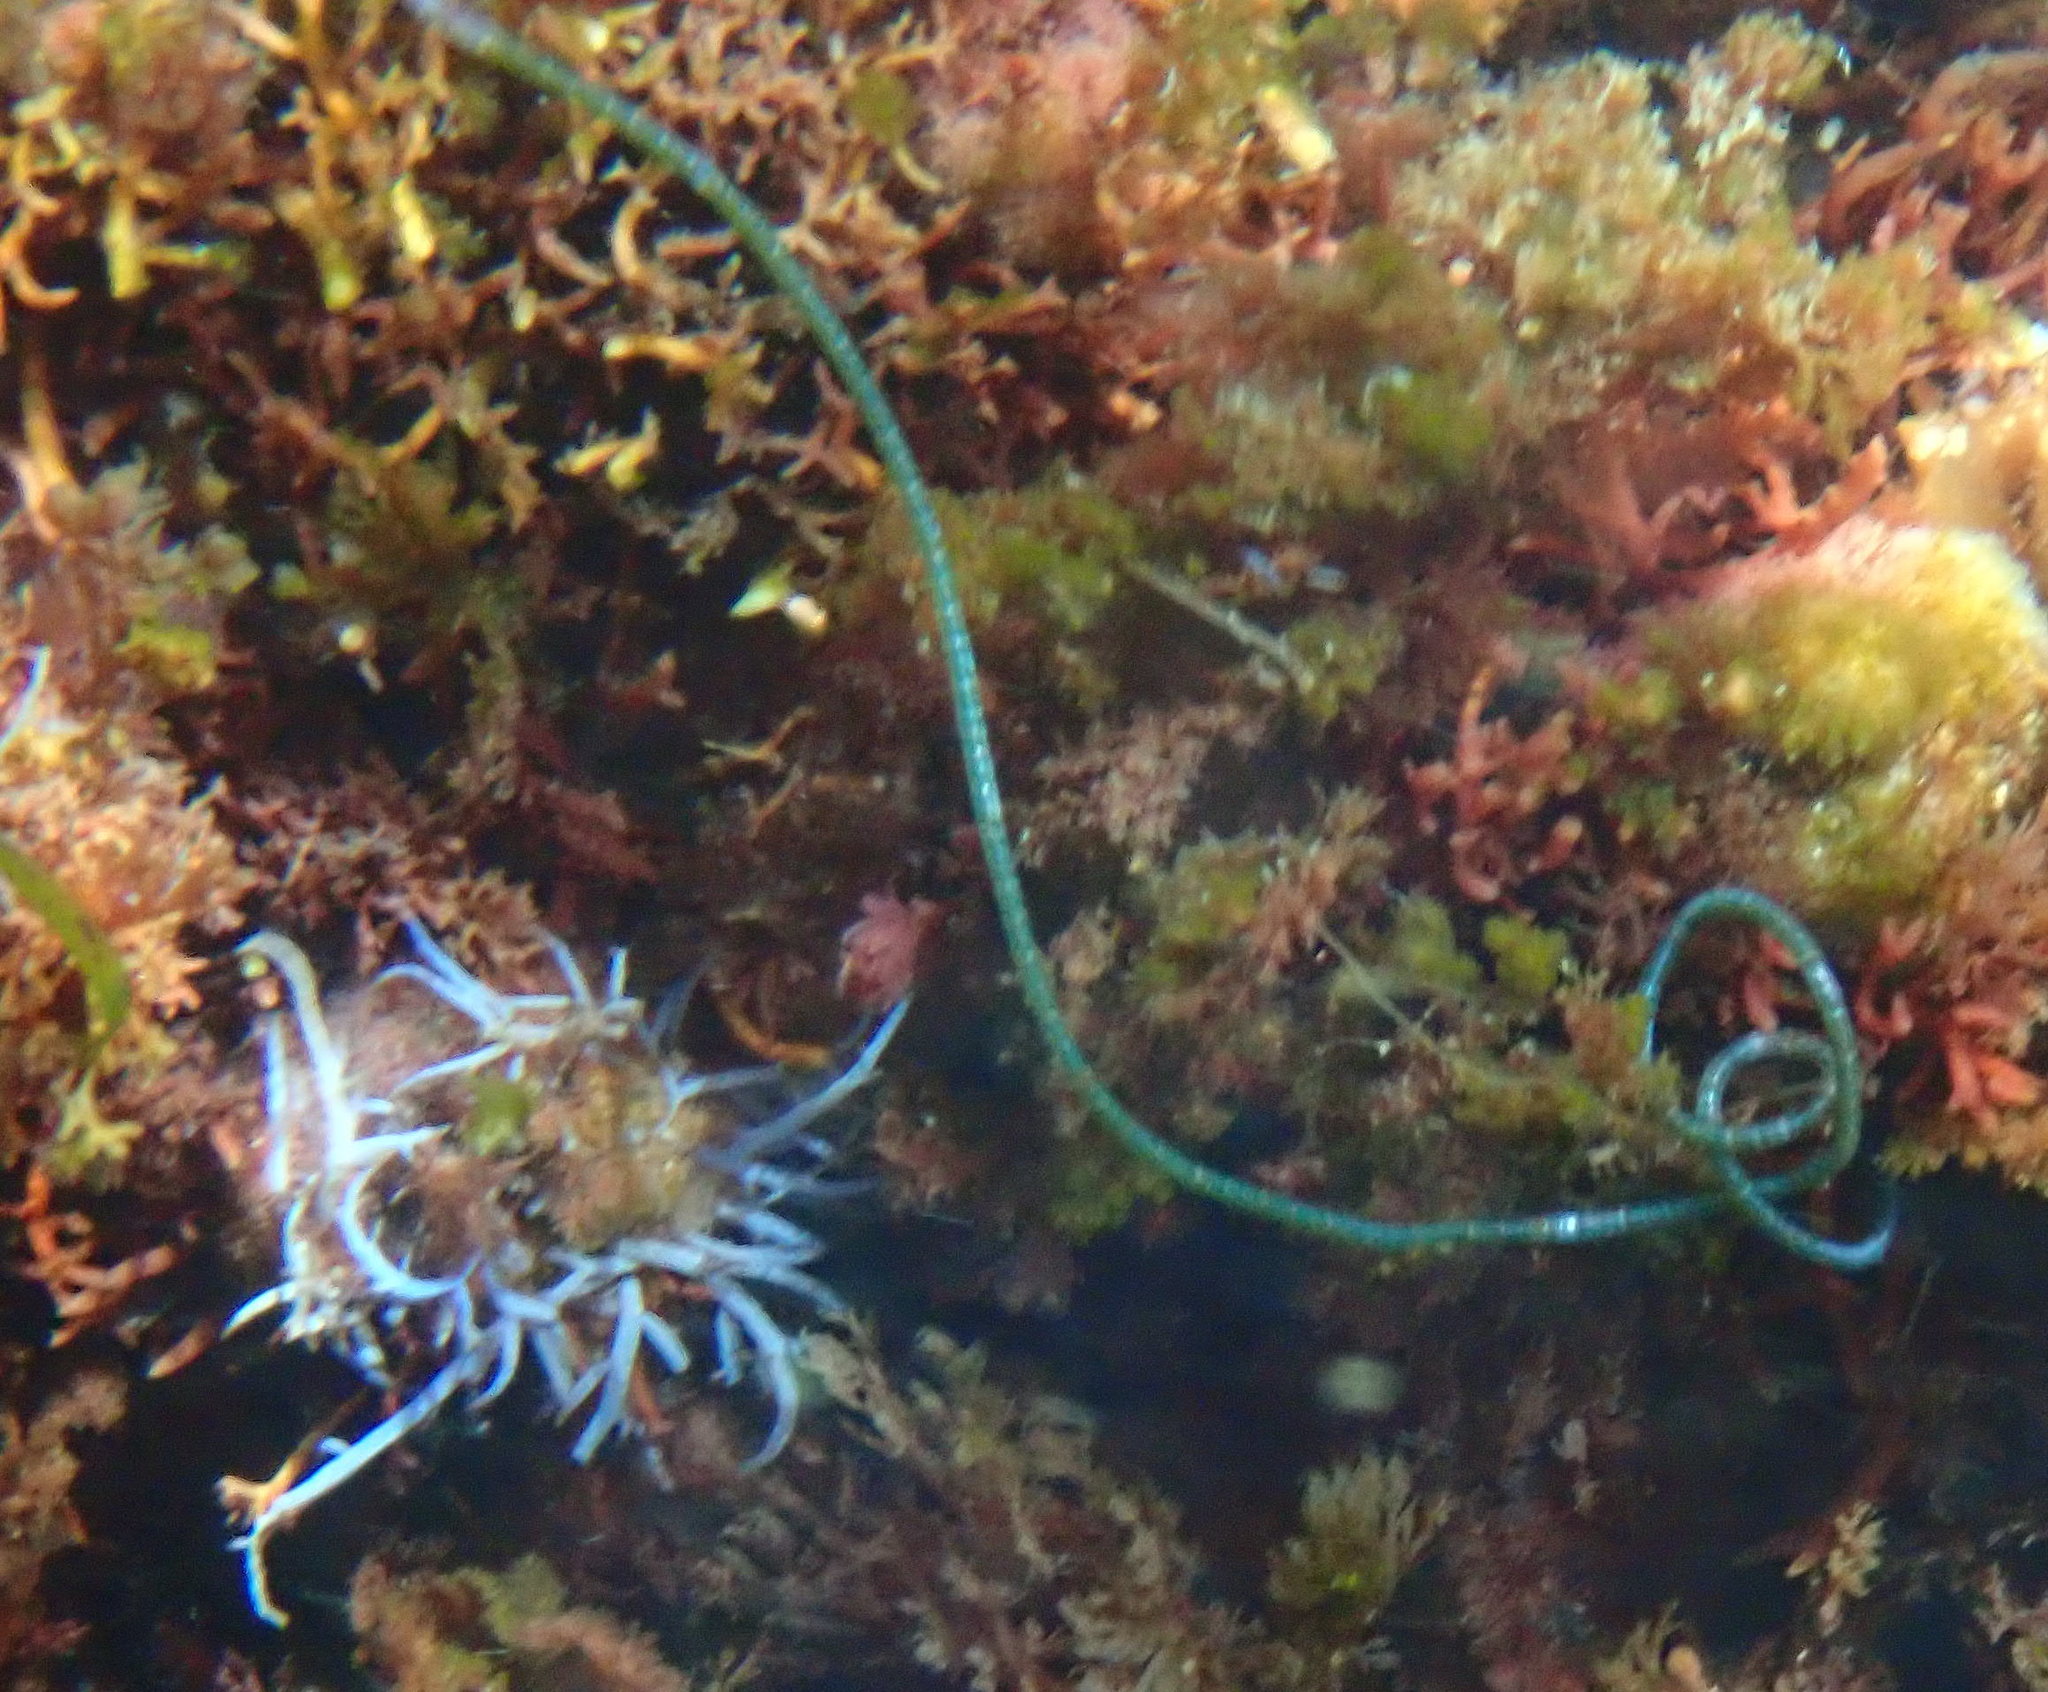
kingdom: Plantae
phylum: Chlorophyta
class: Ulvophyceae
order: Cladophorales
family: Cladophoraceae
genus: Chaetomorpha
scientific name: Chaetomorpha spiralis
